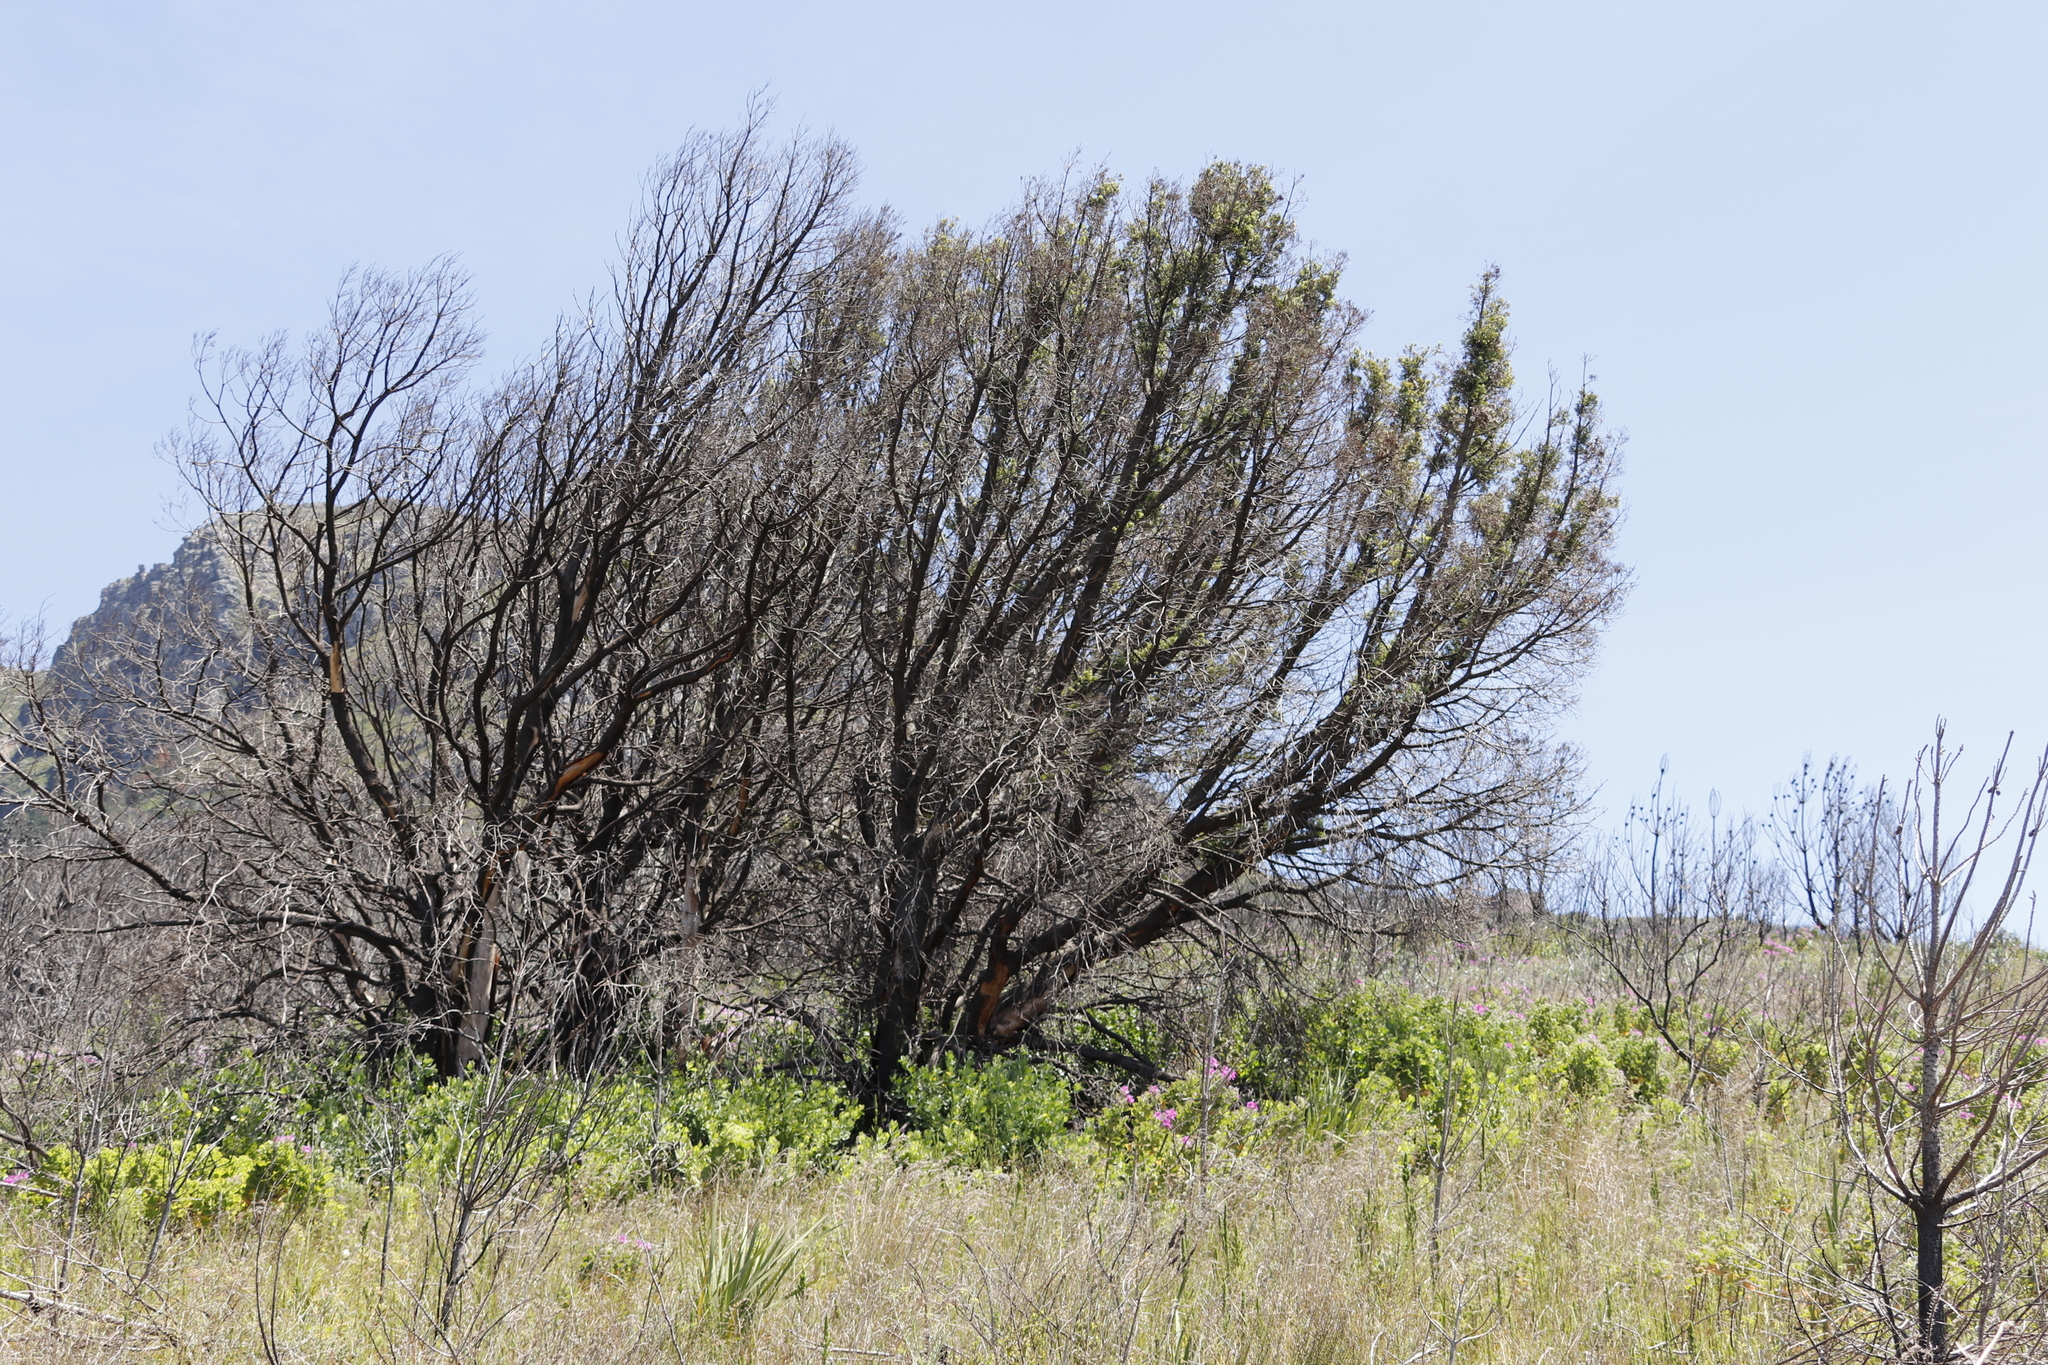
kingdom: Plantae
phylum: Tracheophyta
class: Pinopsida
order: Pinales
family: Podocarpaceae
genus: Podocarpus
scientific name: Podocarpus latifolius
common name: True yellowwood
